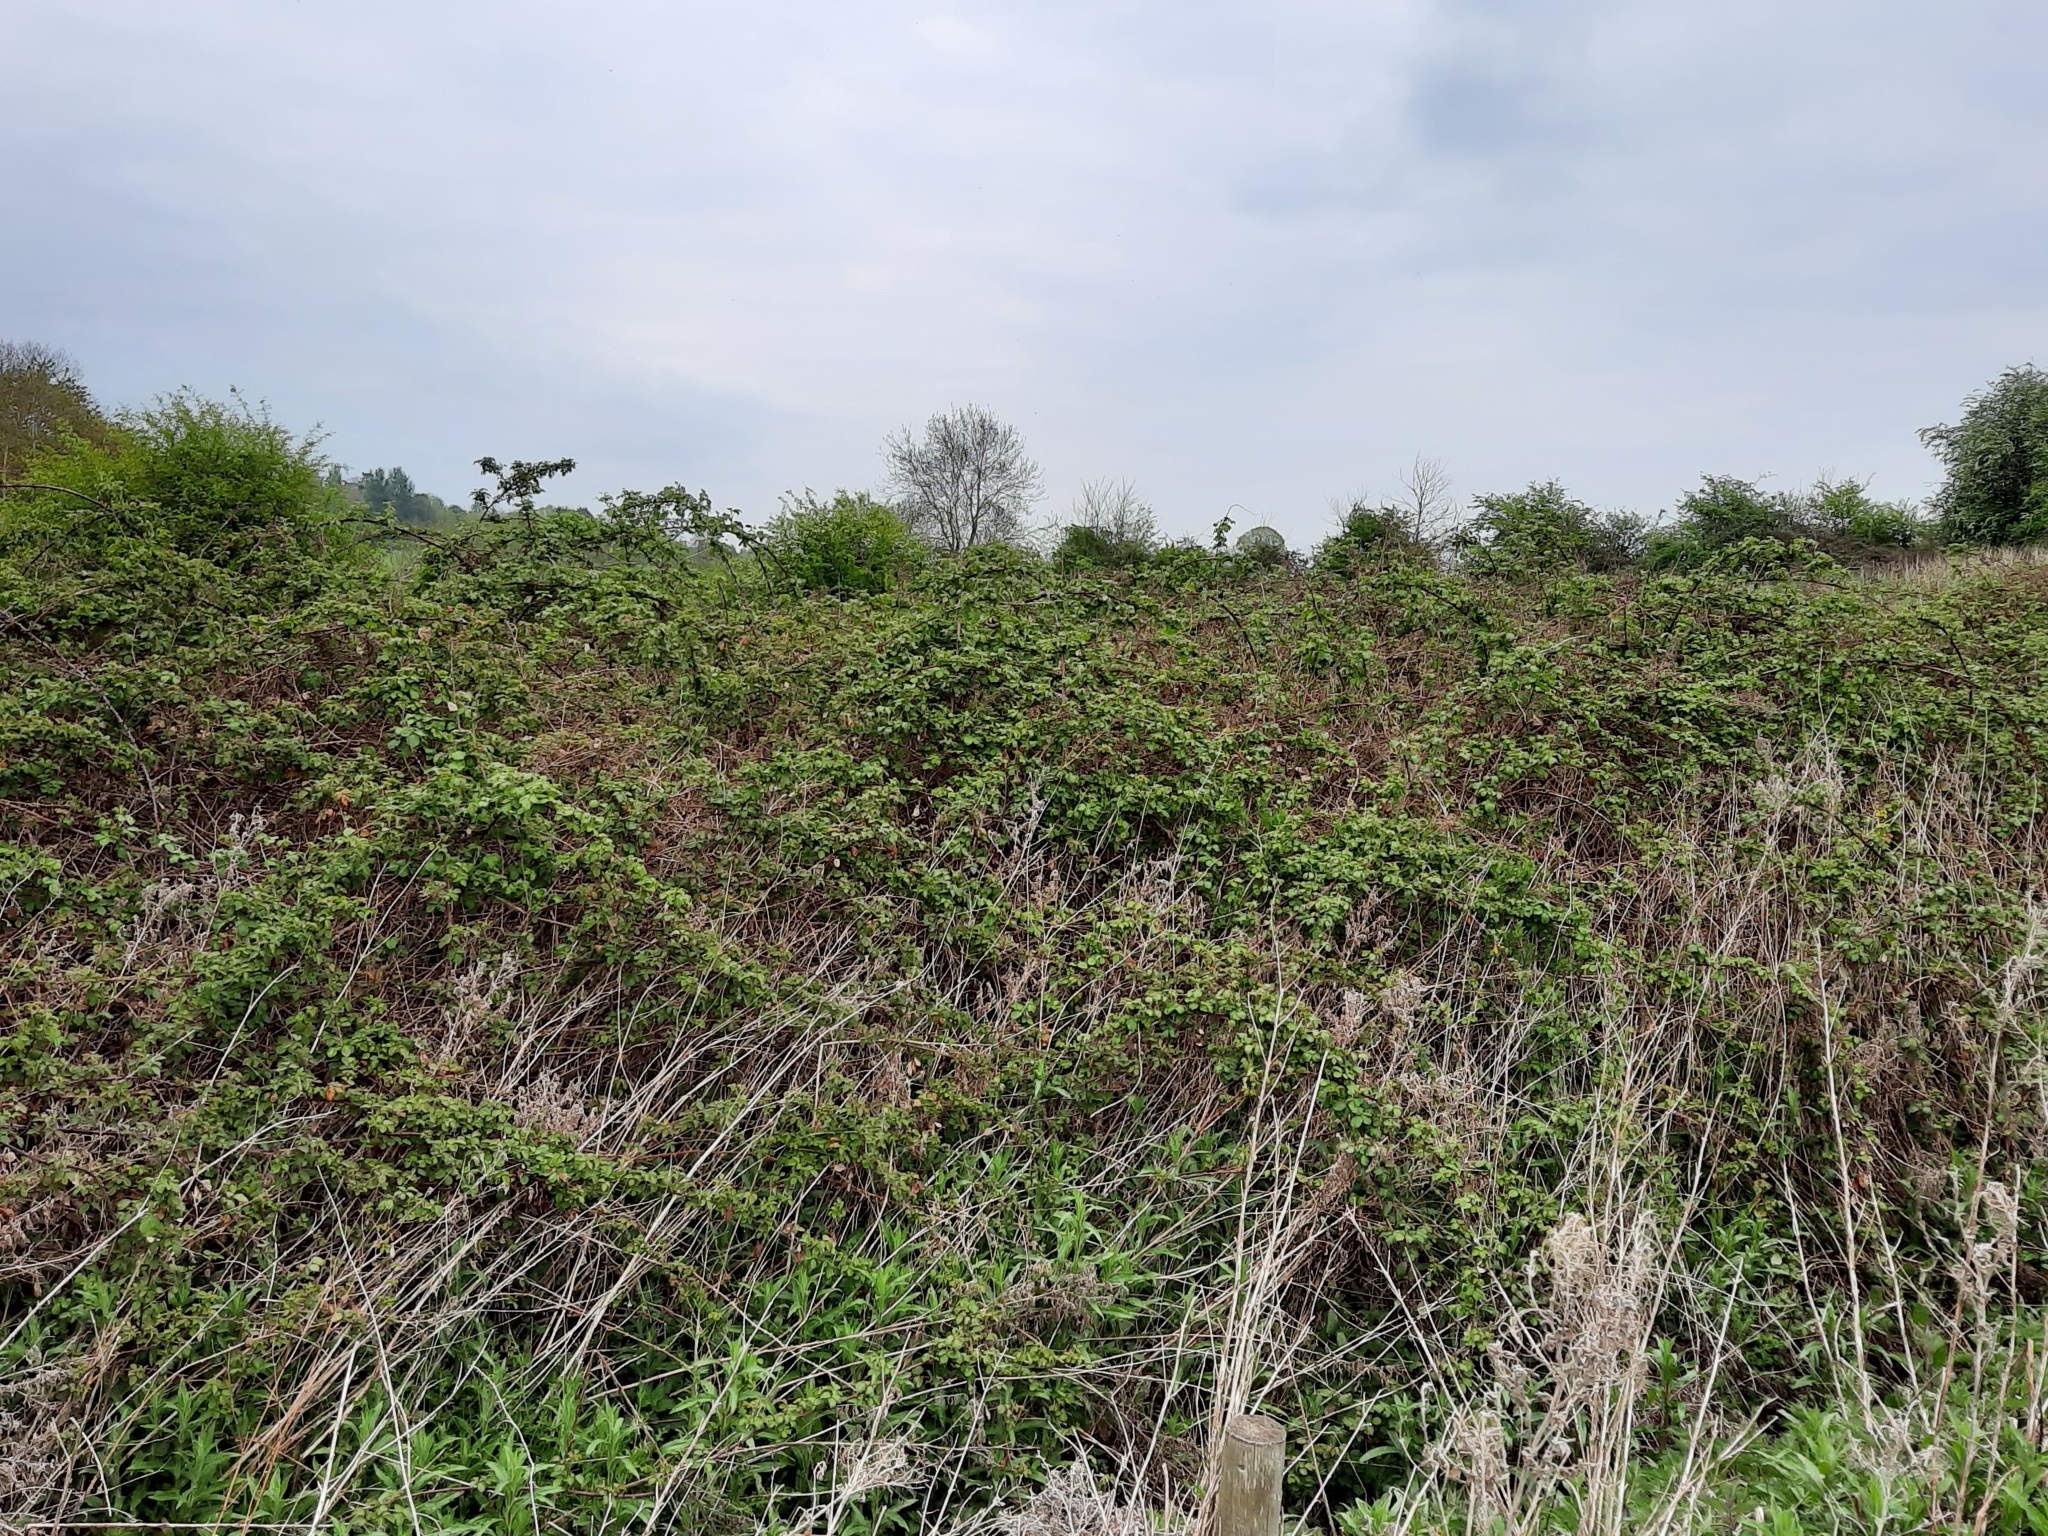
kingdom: Plantae
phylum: Tracheophyta
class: Magnoliopsida
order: Rosales
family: Rosaceae
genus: Rubus
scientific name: Rubus ulmifolius
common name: Elmleaf blackberry
